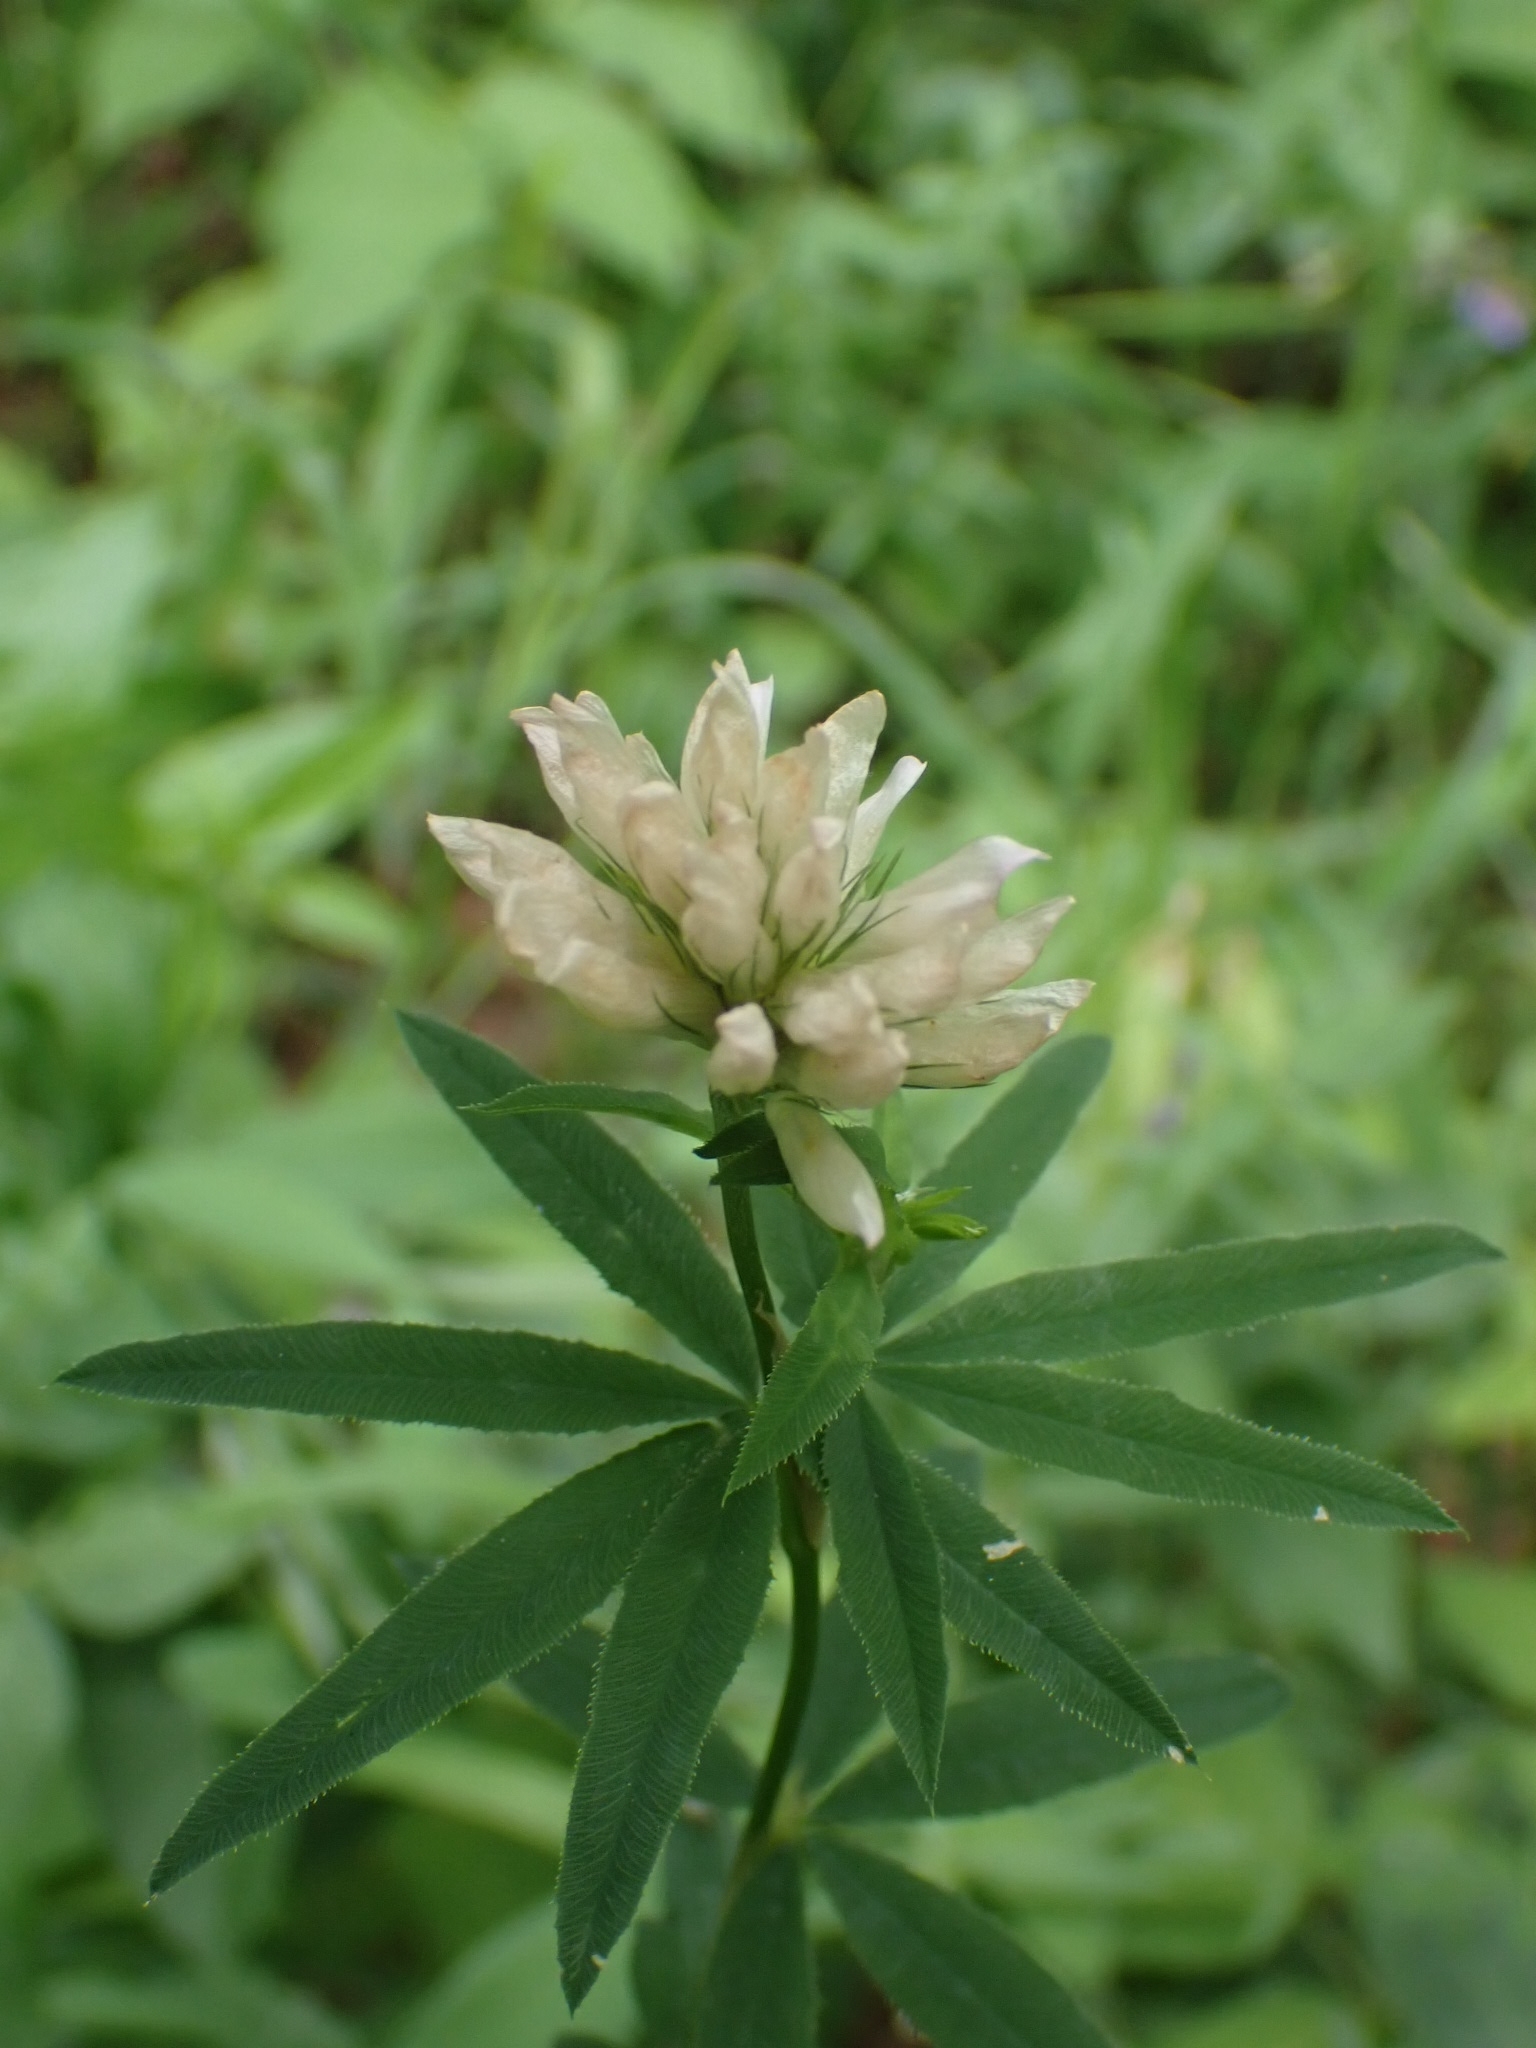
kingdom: Plantae
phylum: Tracheophyta
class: Magnoliopsida
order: Fabales
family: Fabaceae
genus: Trifolium
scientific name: Trifolium lupinaster
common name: Lupine clover
